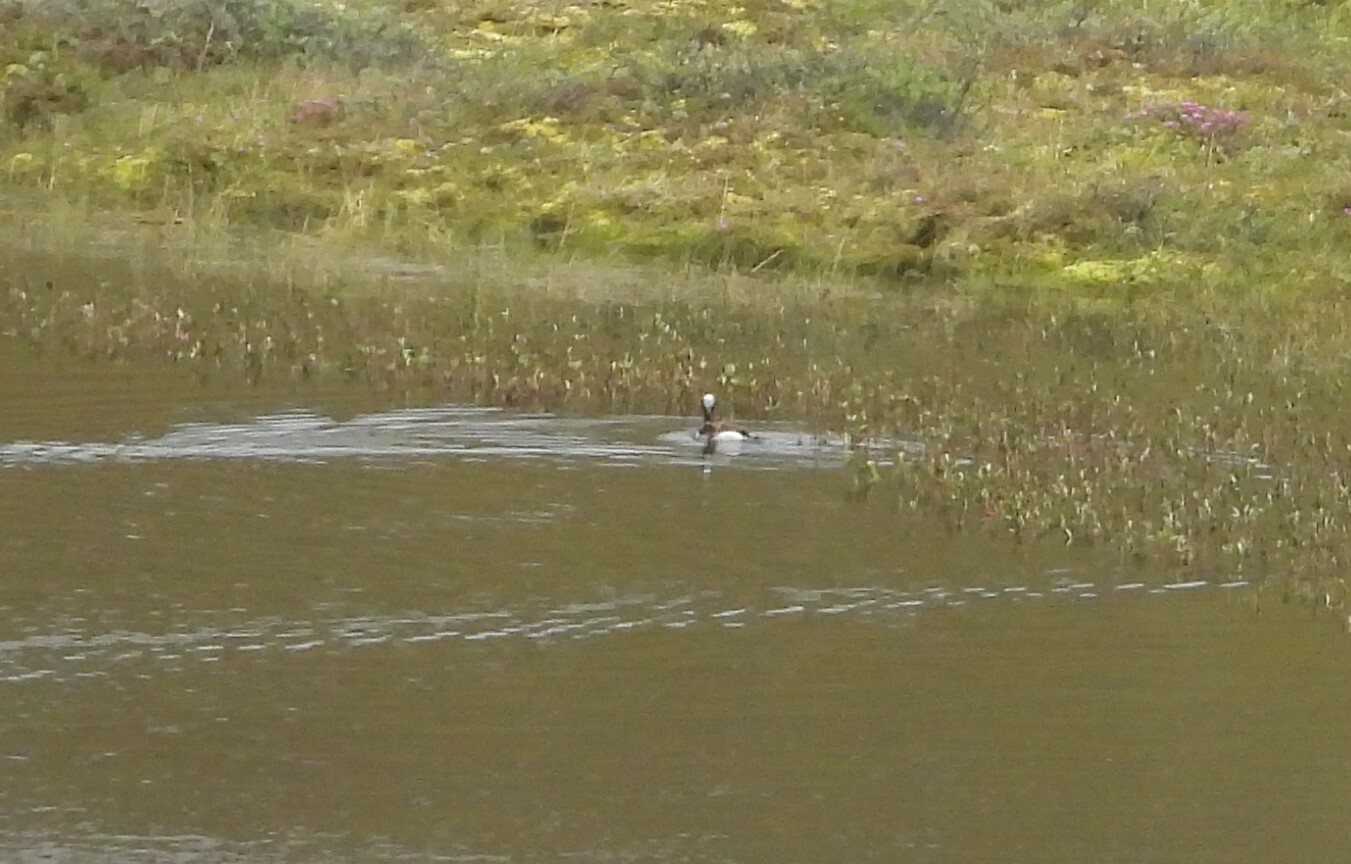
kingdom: Animalia
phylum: Chordata
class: Aves
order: Anseriformes
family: Anatidae
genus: Clangula
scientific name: Clangula hyemalis
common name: Long-tailed duck
